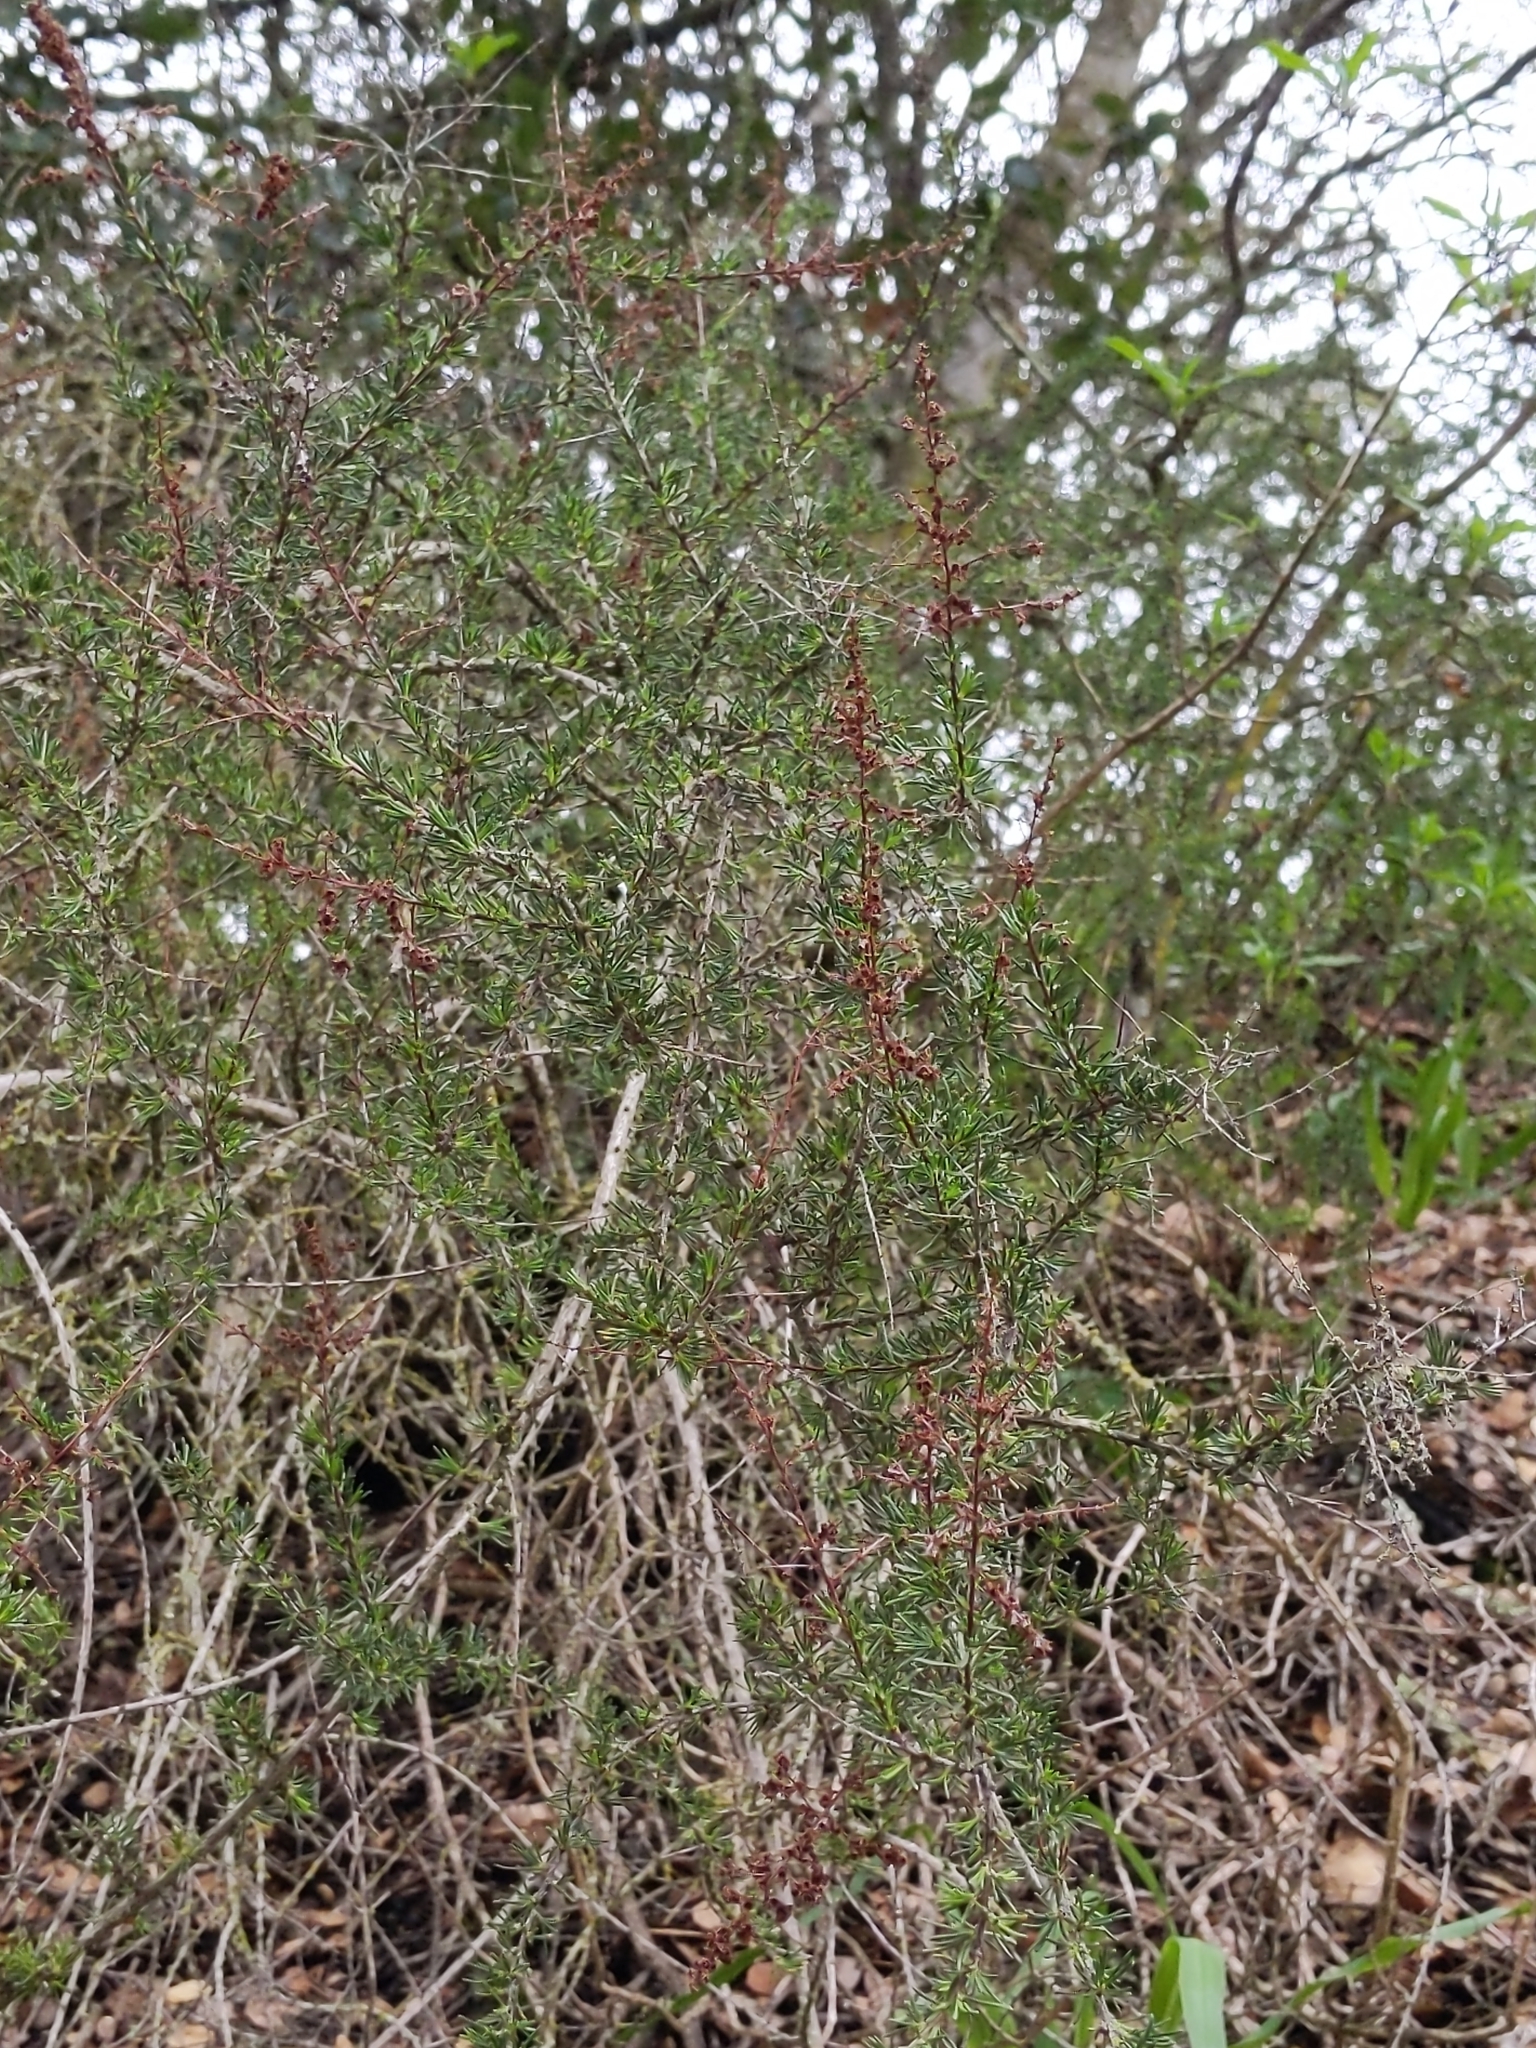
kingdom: Plantae
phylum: Tracheophyta
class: Magnoliopsida
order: Rosales
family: Rosaceae
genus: Adenostoma
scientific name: Adenostoma fasciculatum
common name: Chamise
